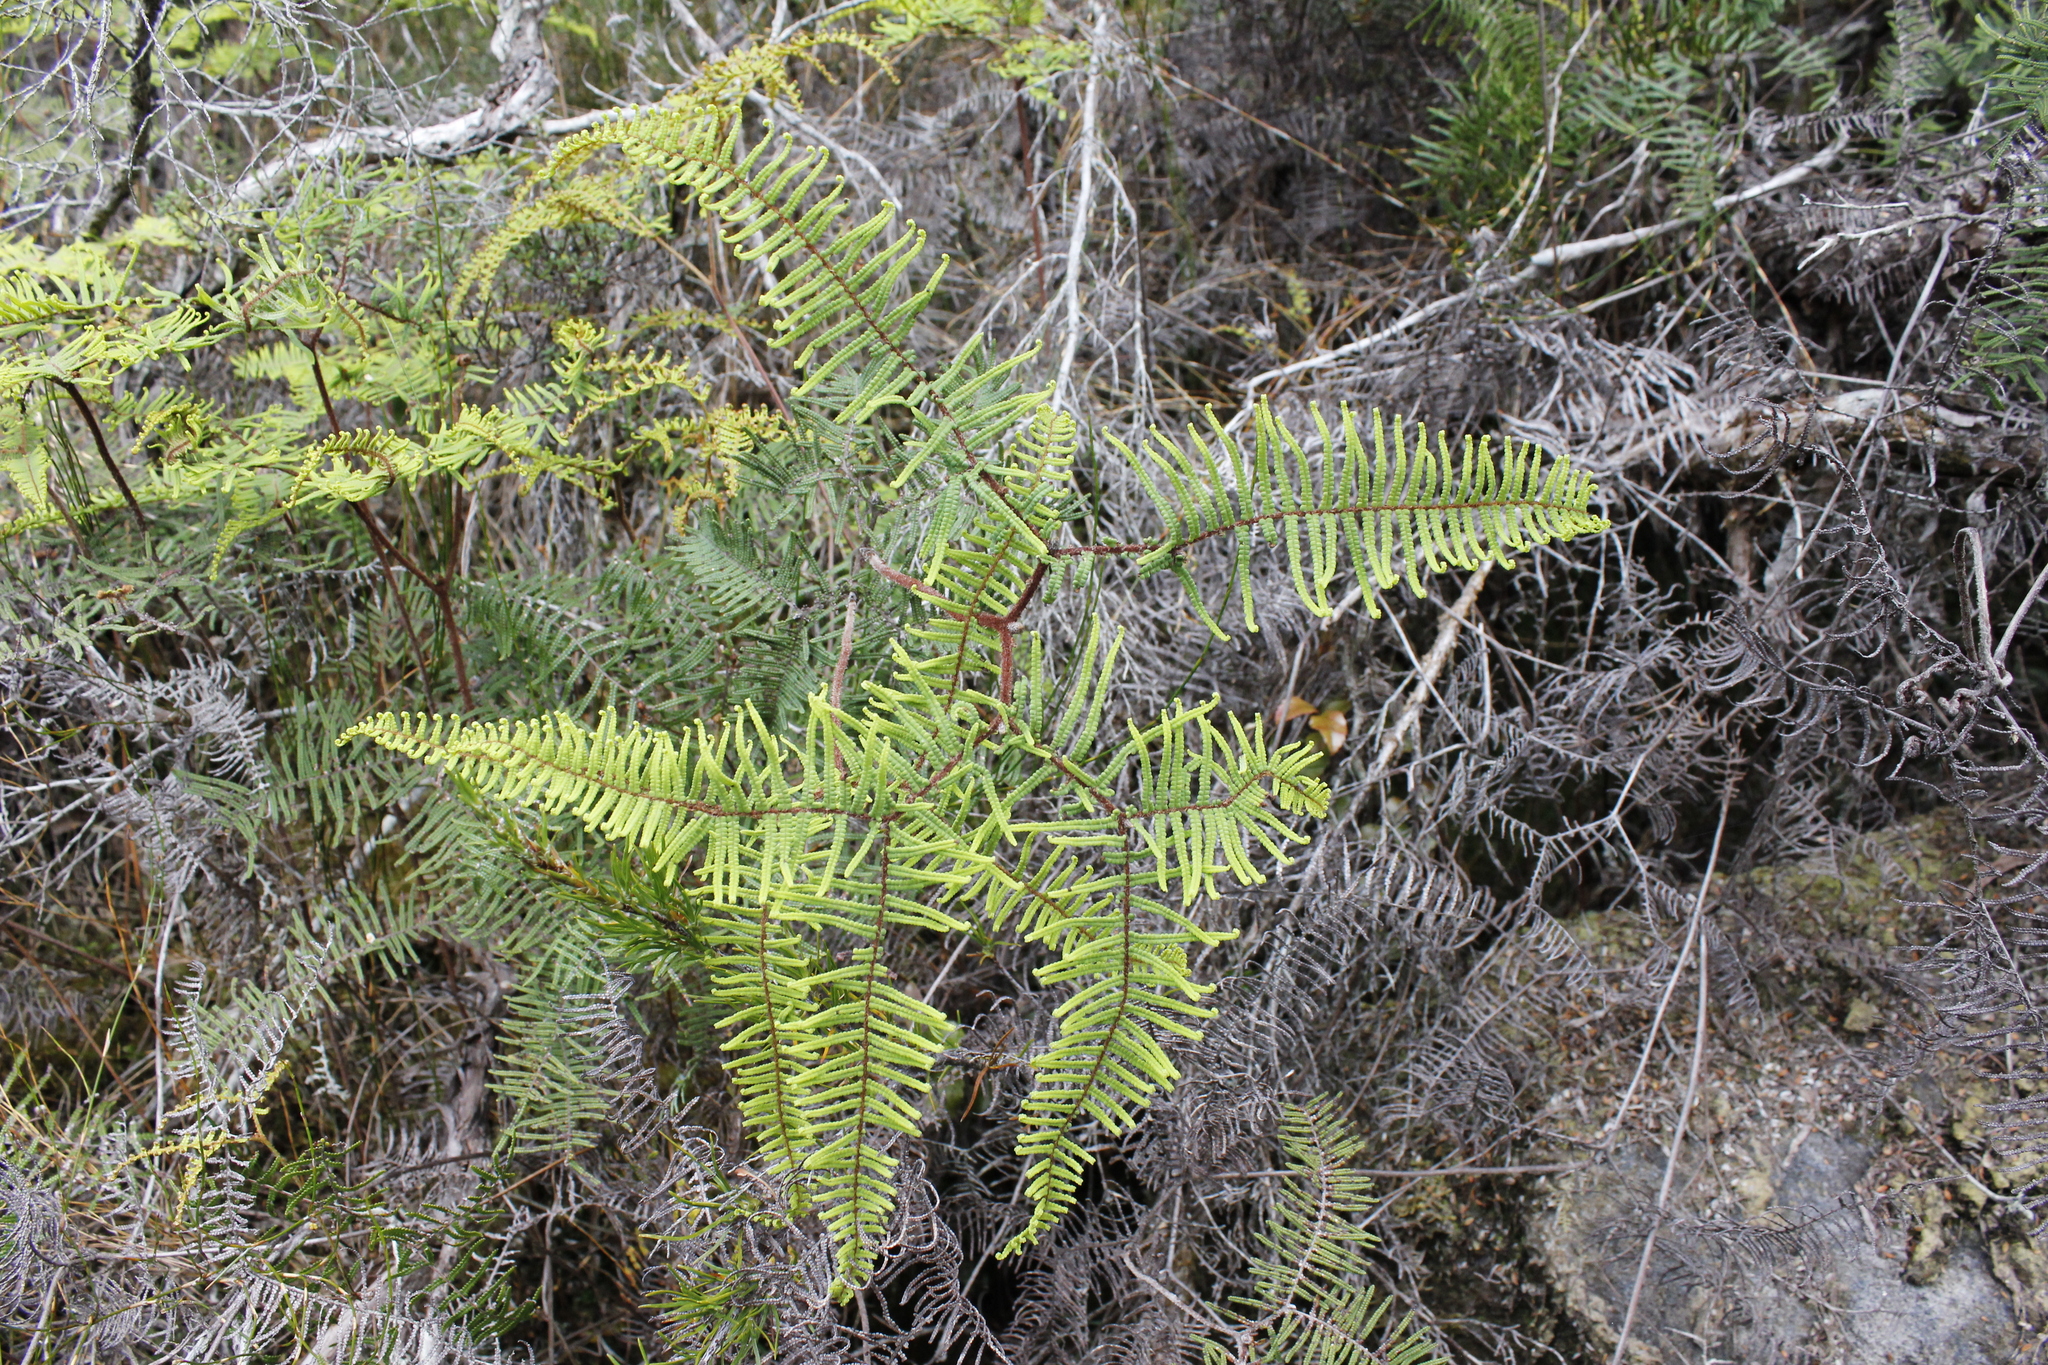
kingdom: Plantae
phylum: Tracheophyta
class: Polypodiopsida
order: Gleicheniales
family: Gleicheniaceae
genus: Gleichenia
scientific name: Gleichenia dicarpa
